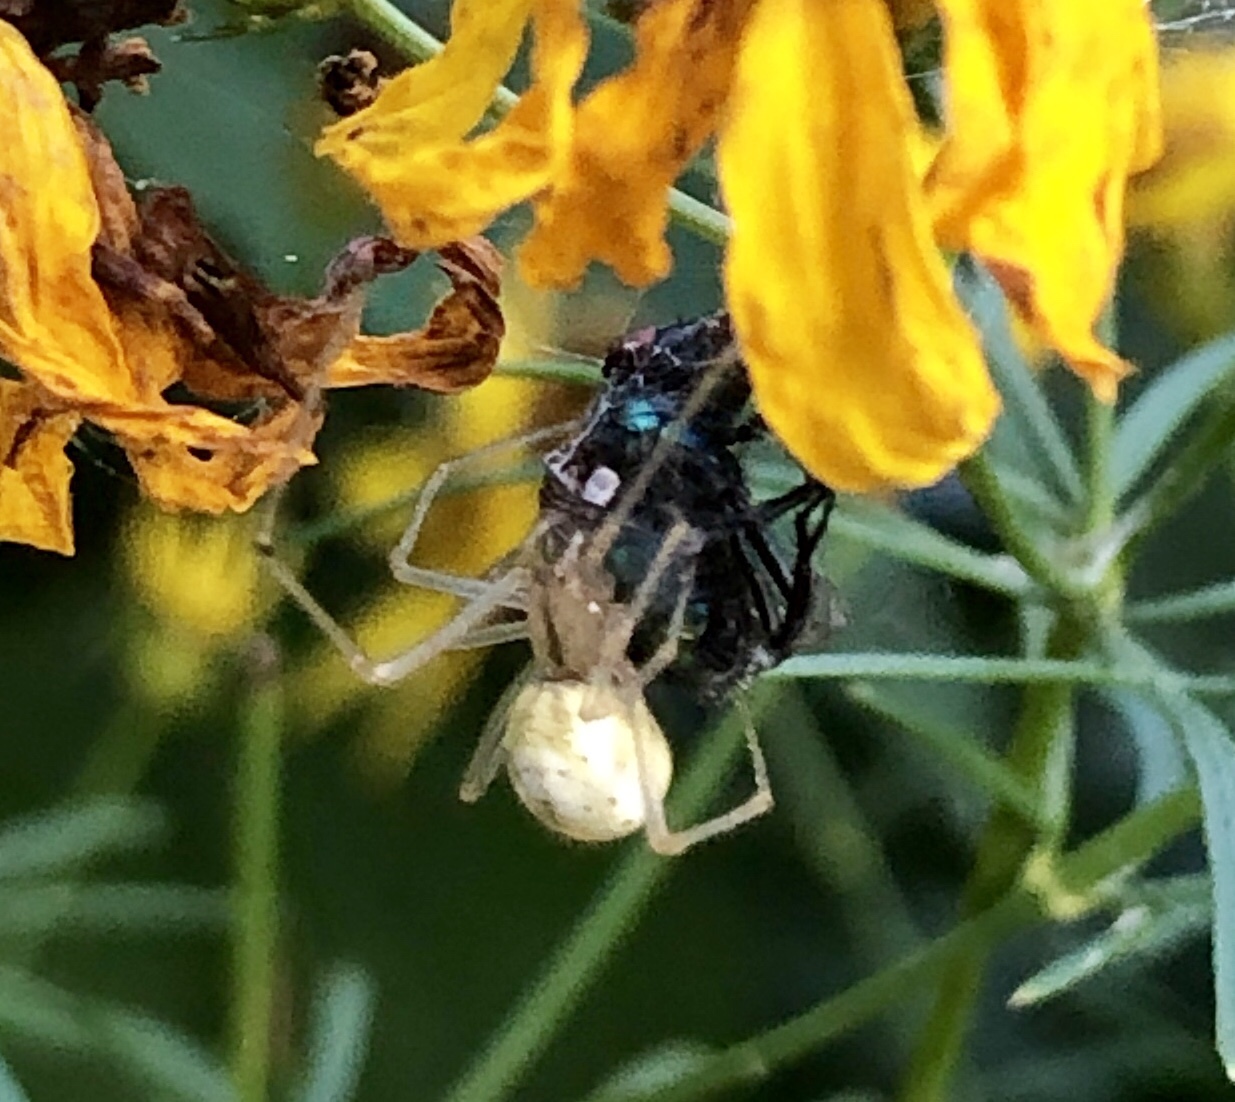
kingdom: Animalia
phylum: Arthropoda
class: Arachnida
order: Araneae
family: Theridiidae
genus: Enoplognatha
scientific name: Enoplognatha ovata
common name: Common candy-striped spider
